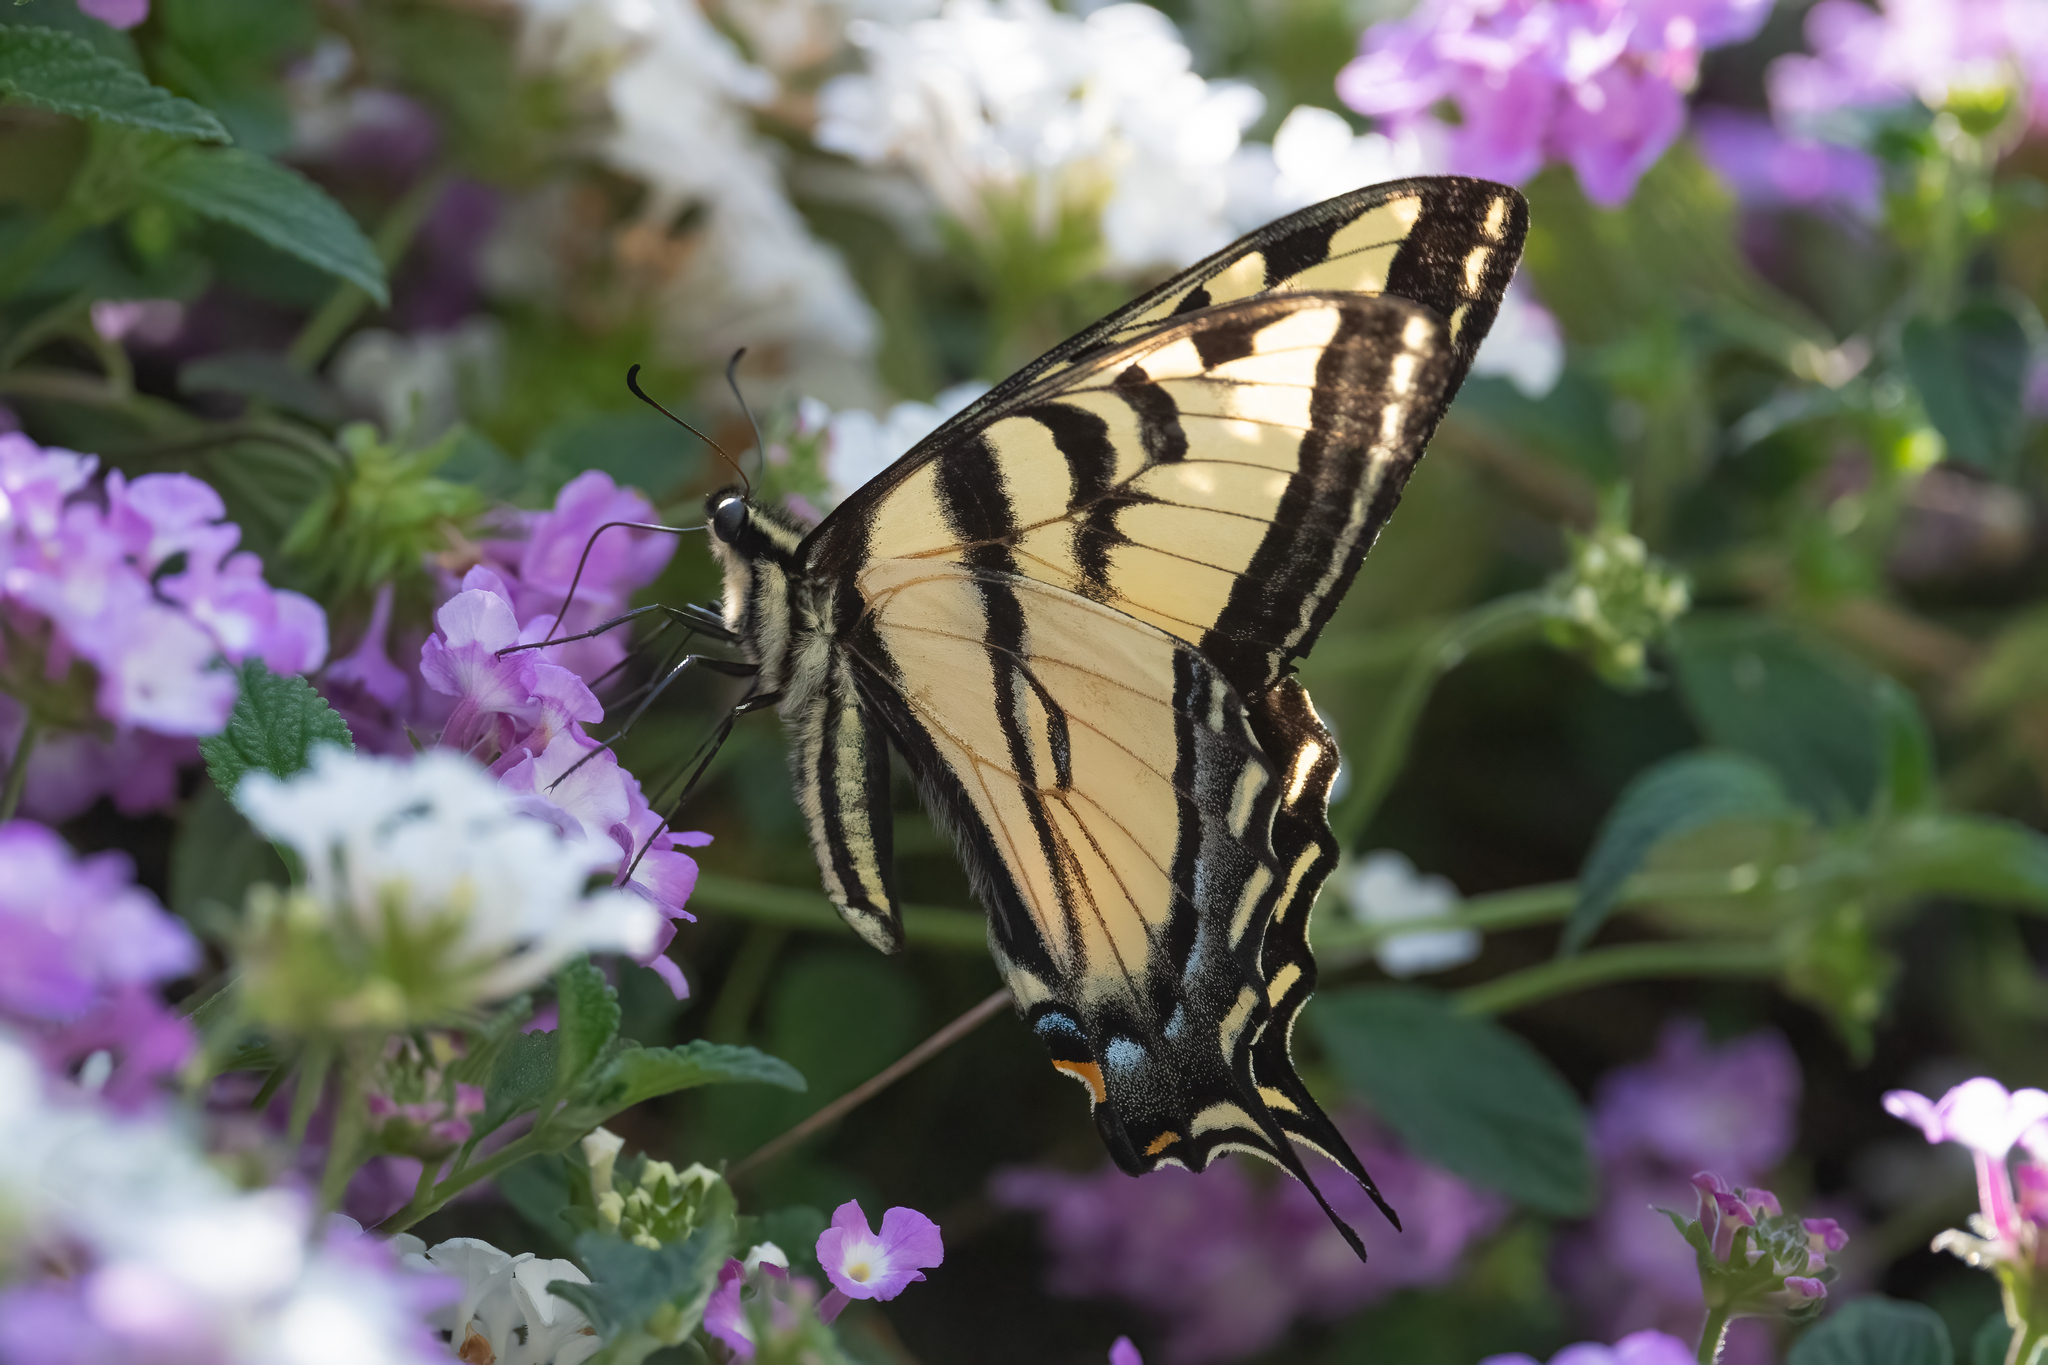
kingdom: Animalia
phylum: Arthropoda
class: Insecta
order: Lepidoptera
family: Papilionidae
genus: Papilio
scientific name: Papilio rutulus
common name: Western tiger swallowtail
